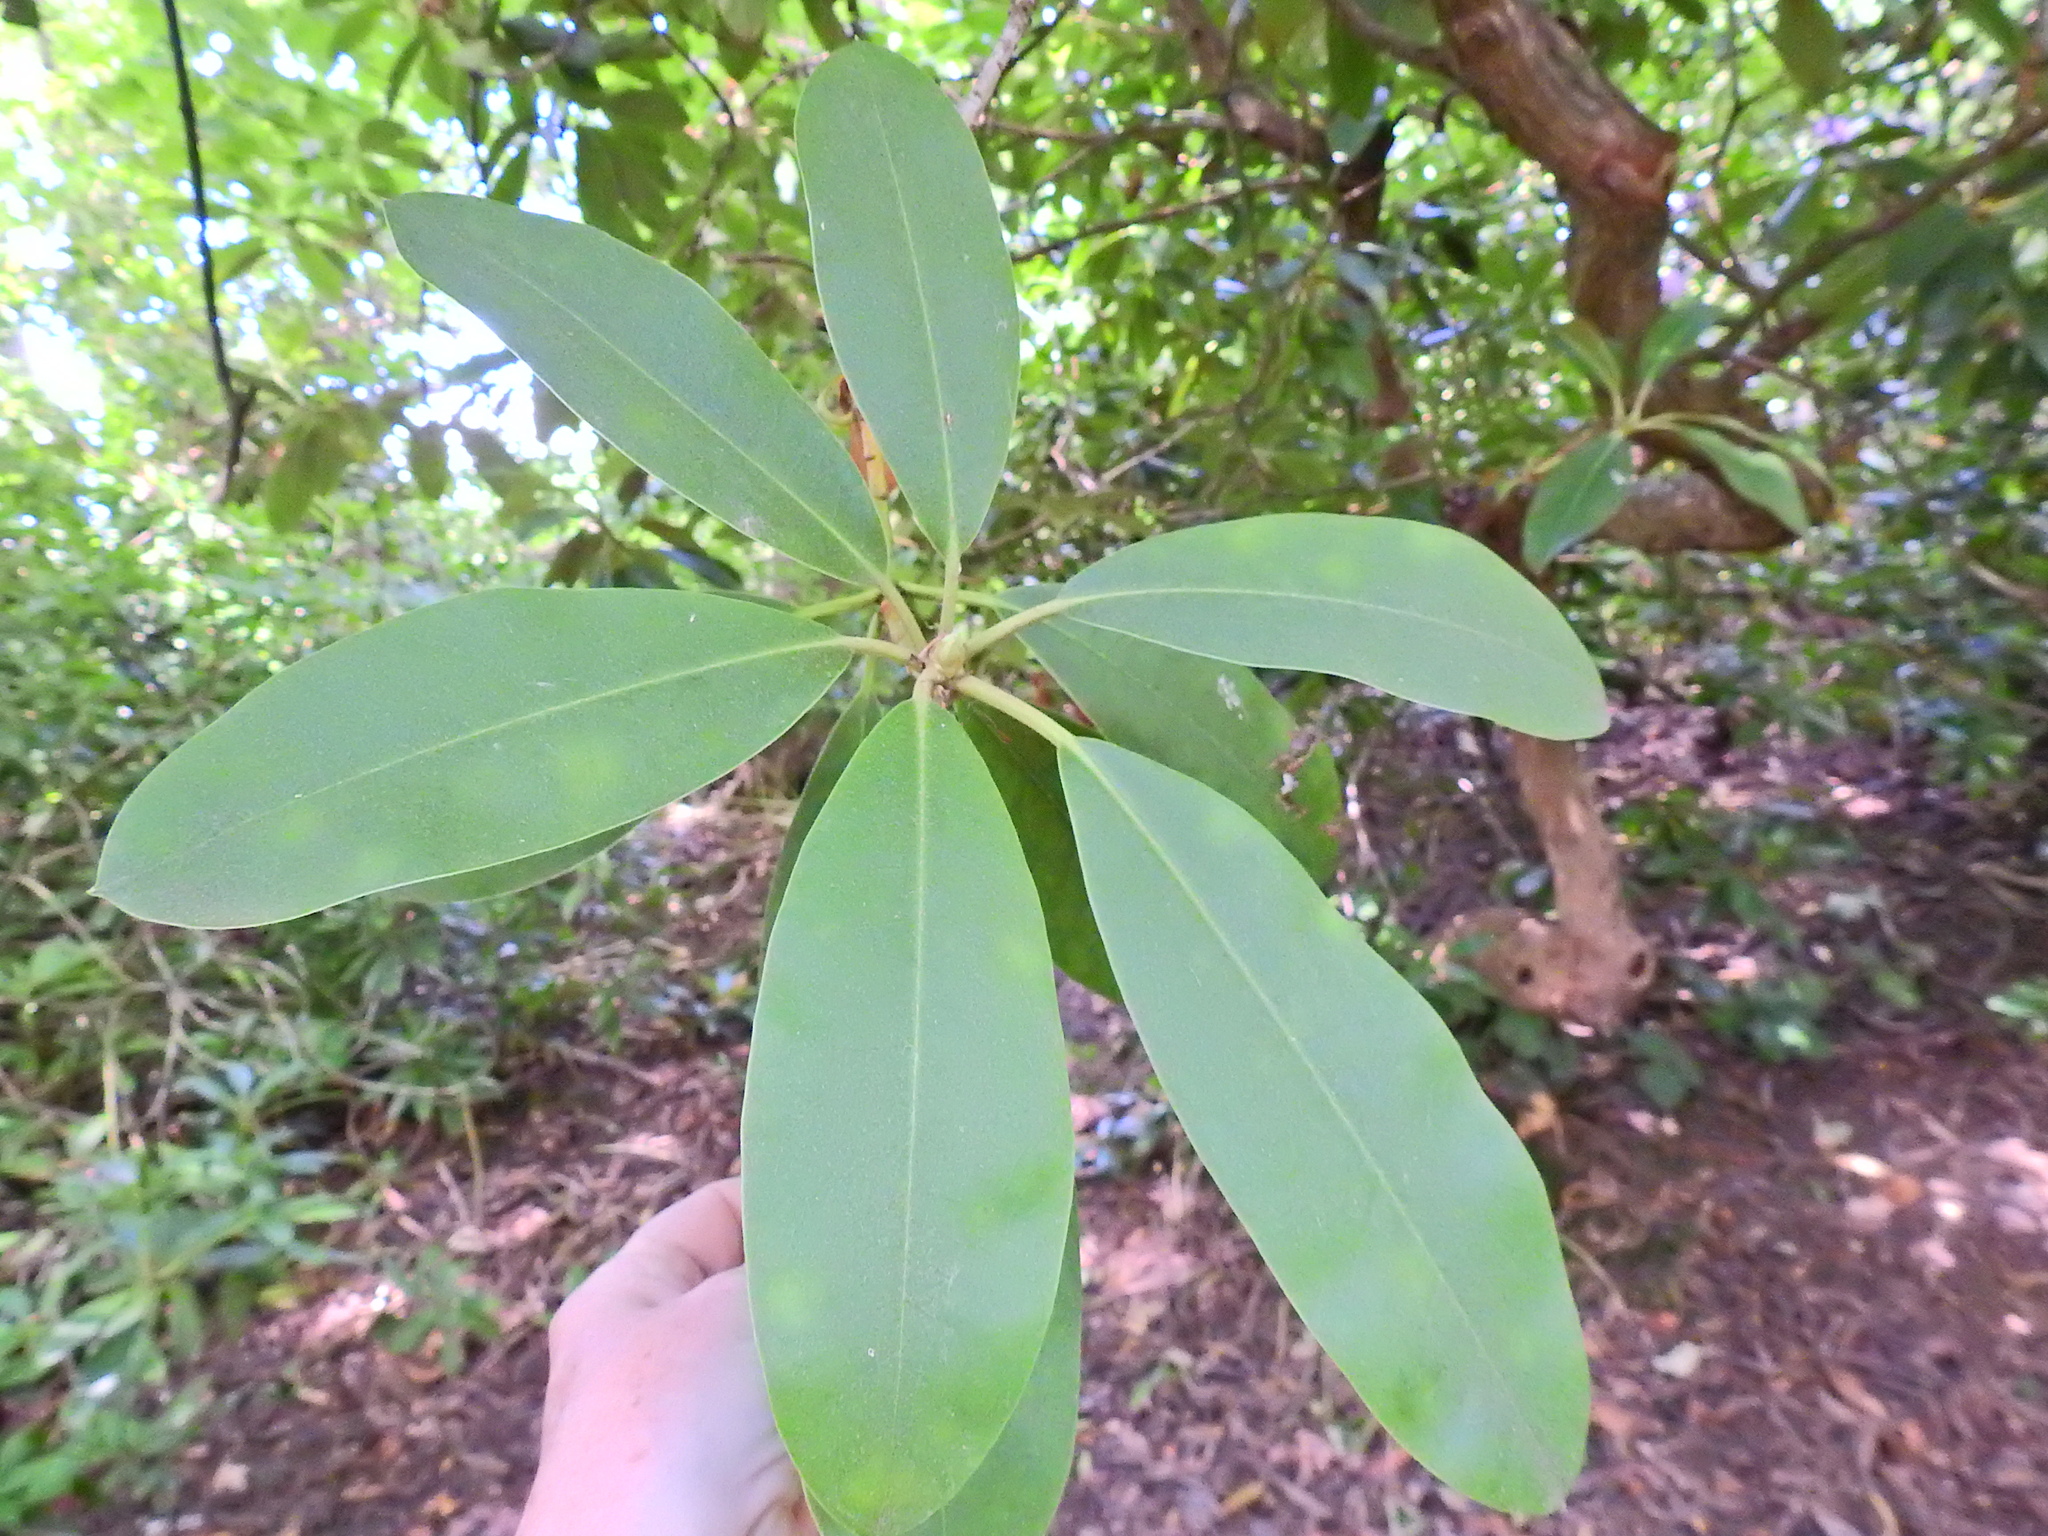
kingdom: Plantae
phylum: Tracheophyta
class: Magnoliopsida
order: Ericales
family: Ericaceae
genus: Rhododendron
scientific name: Rhododendron ponticum
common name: Rhododendron
